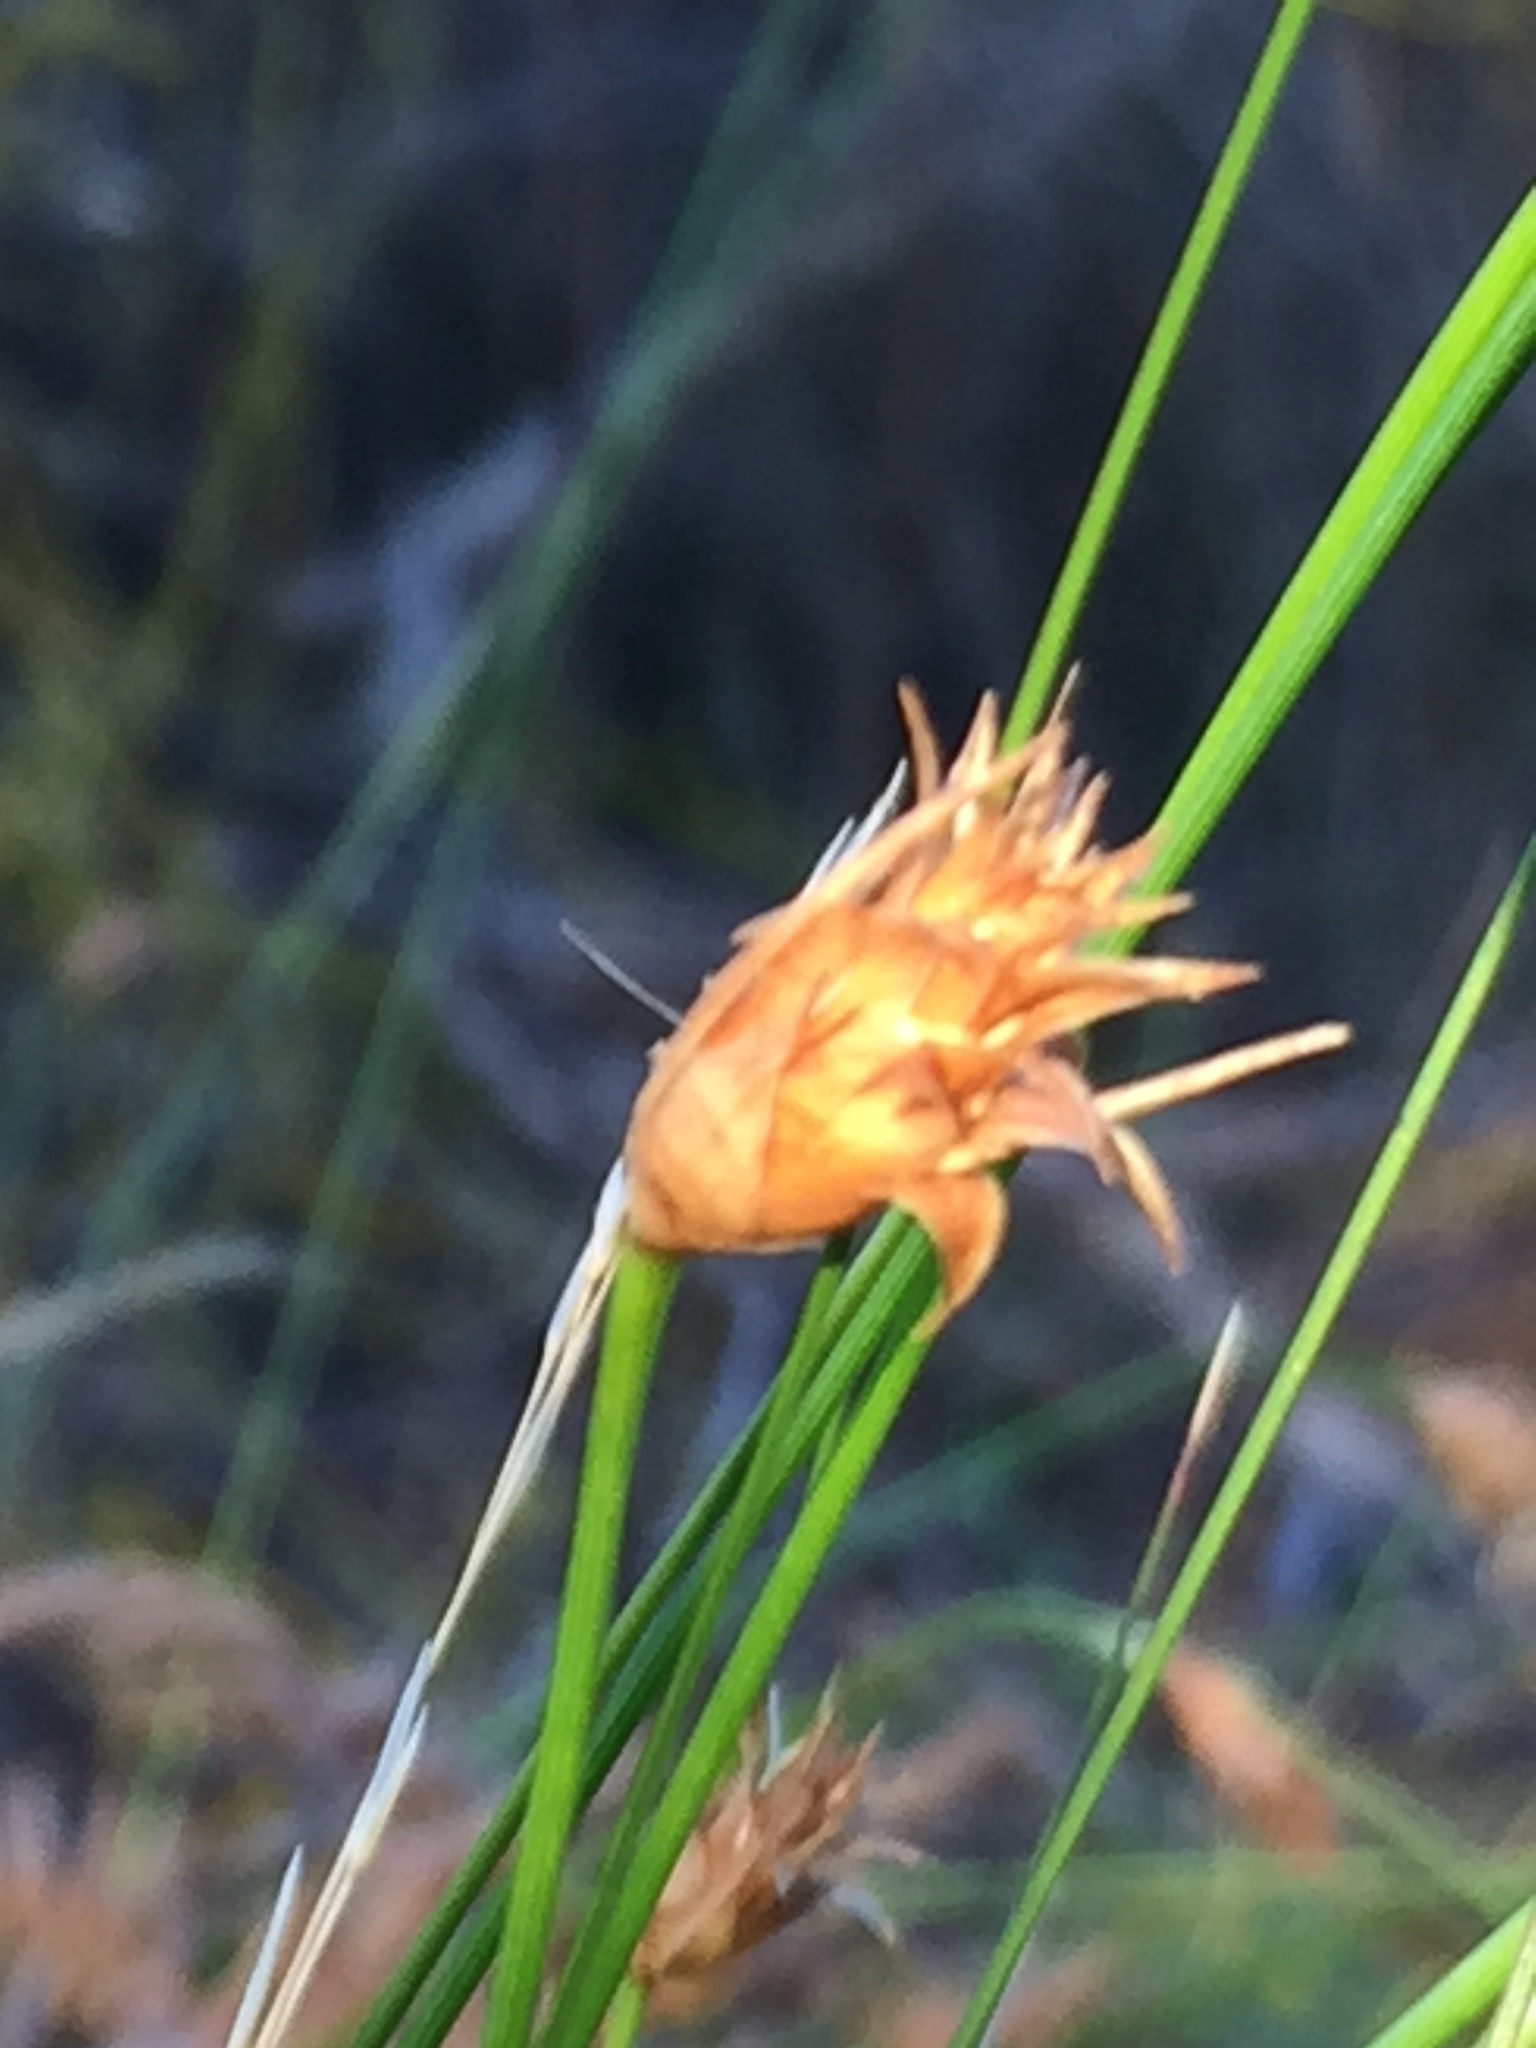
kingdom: Plantae
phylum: Tracheophyta
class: Liliopsida
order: Poales
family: Cyperaceae
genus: Ficinia
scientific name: Ficinia nigrescens
